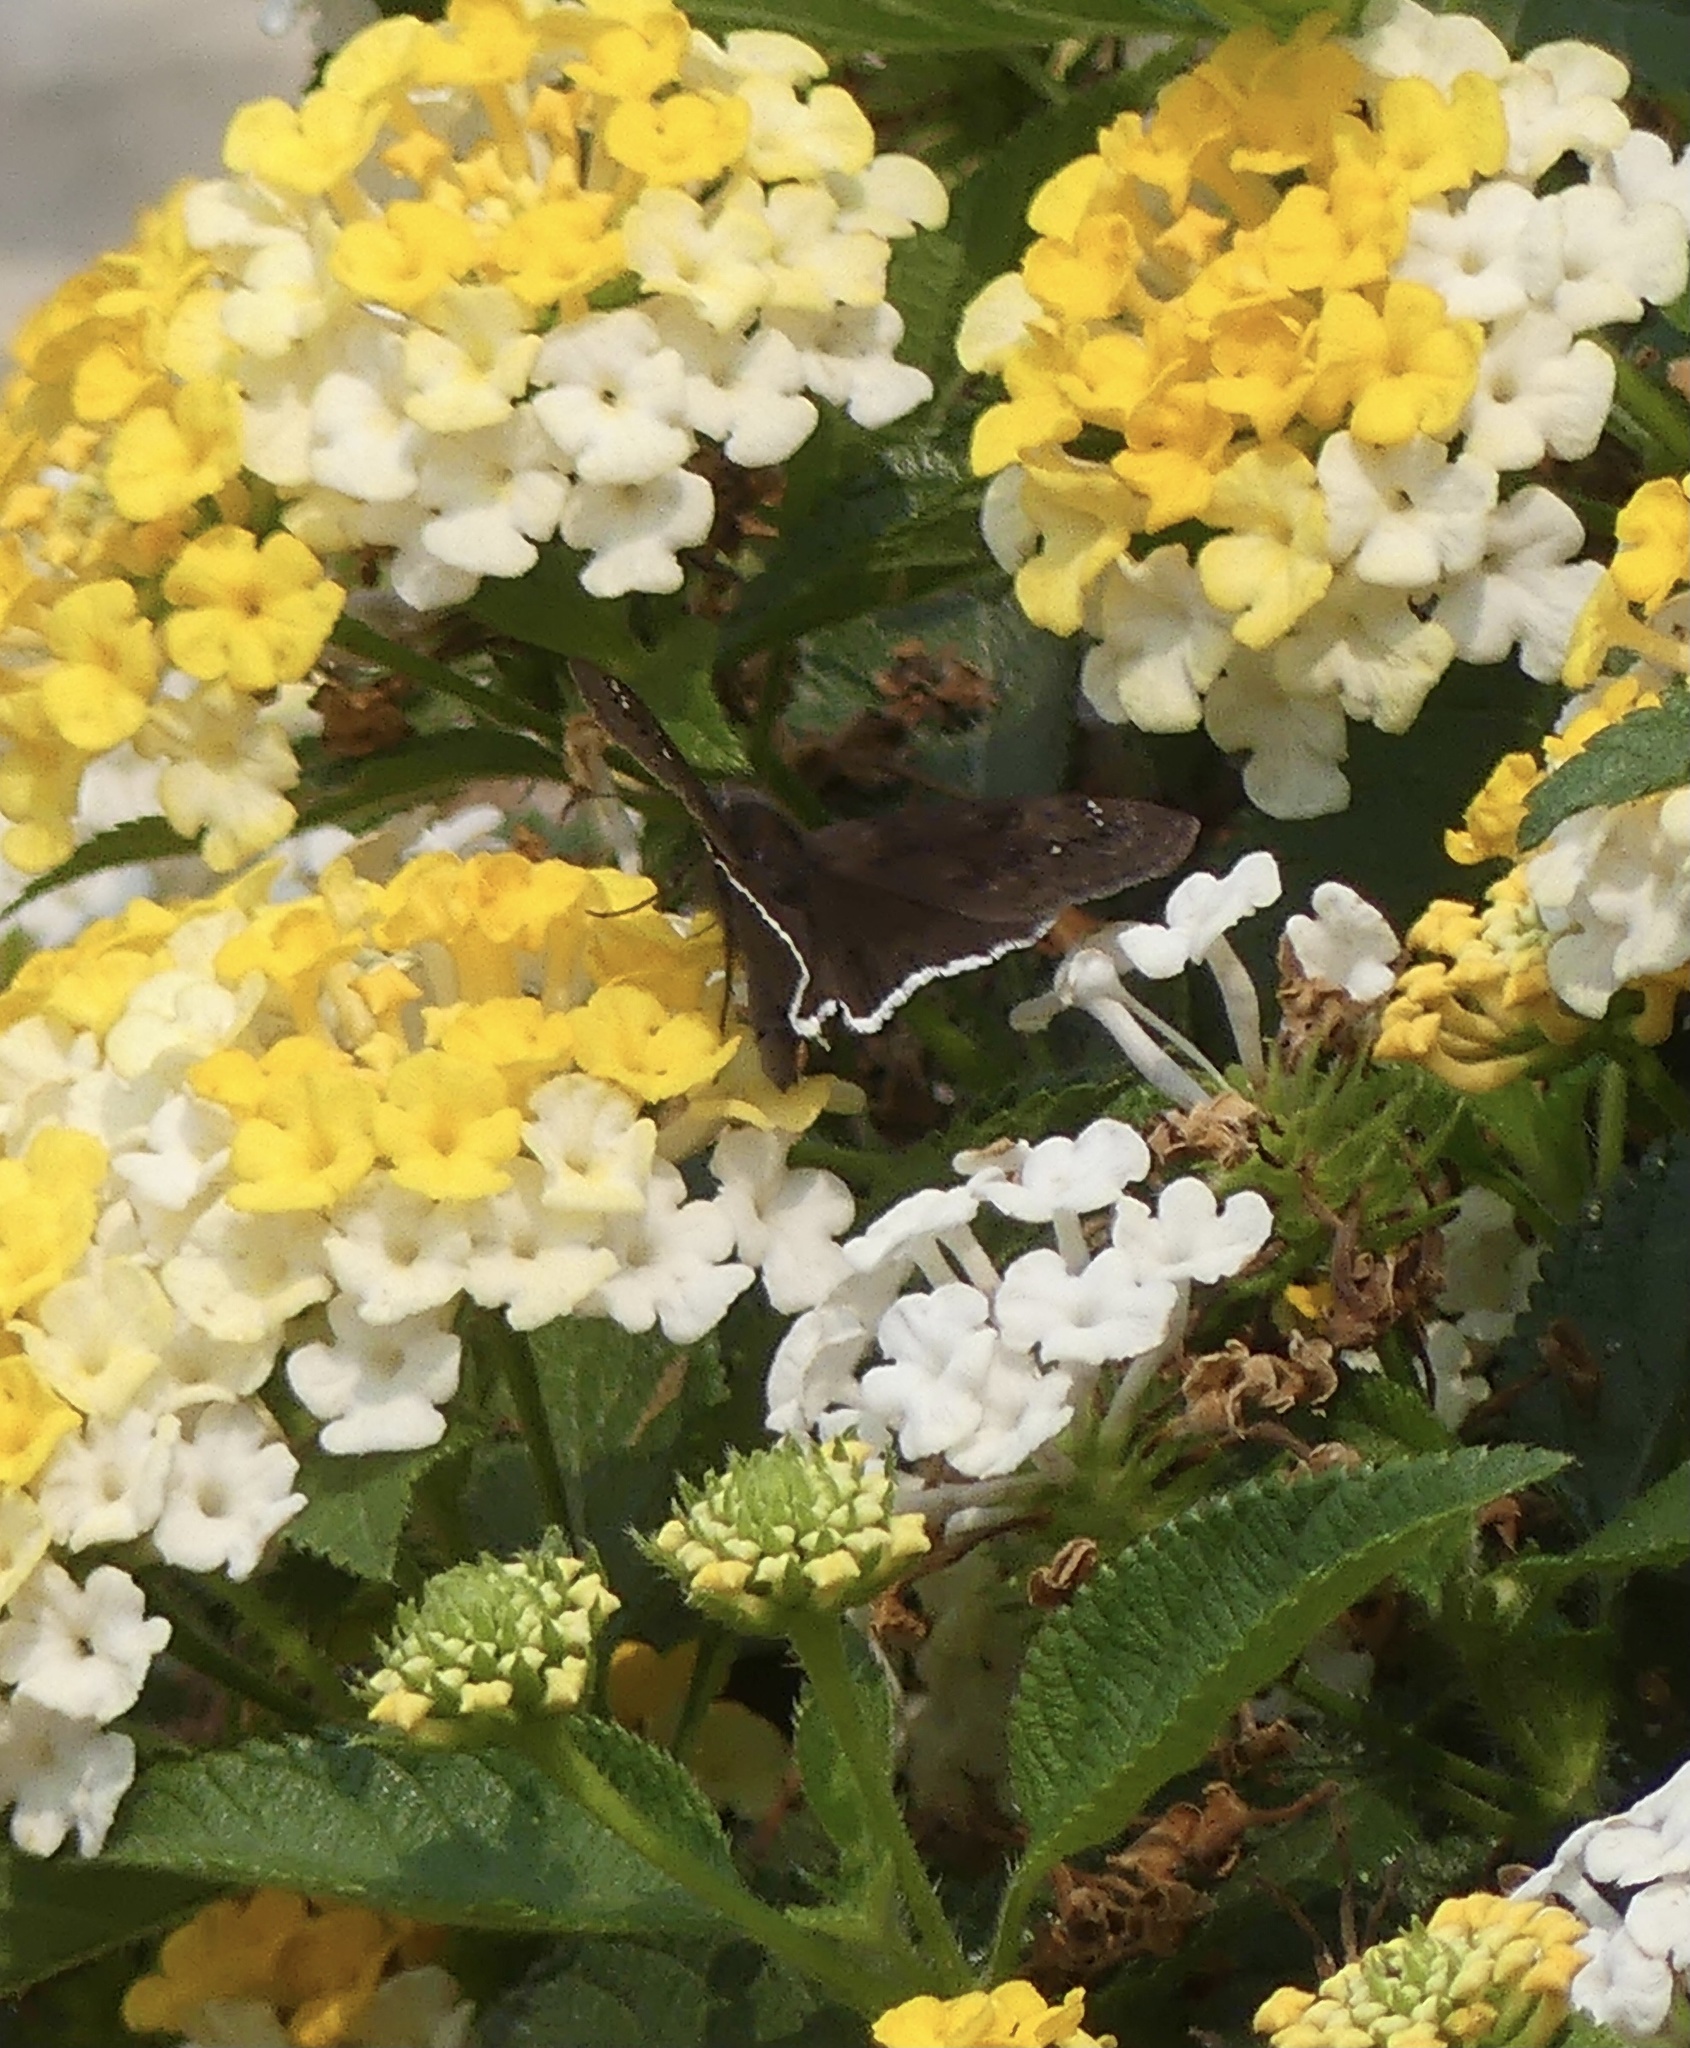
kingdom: Animalia
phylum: Arthropoda
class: Insecta
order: Lepidoptera
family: Hesperiidae
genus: Erynnis
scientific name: Erynnis tristis
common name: Mournful duskywing
